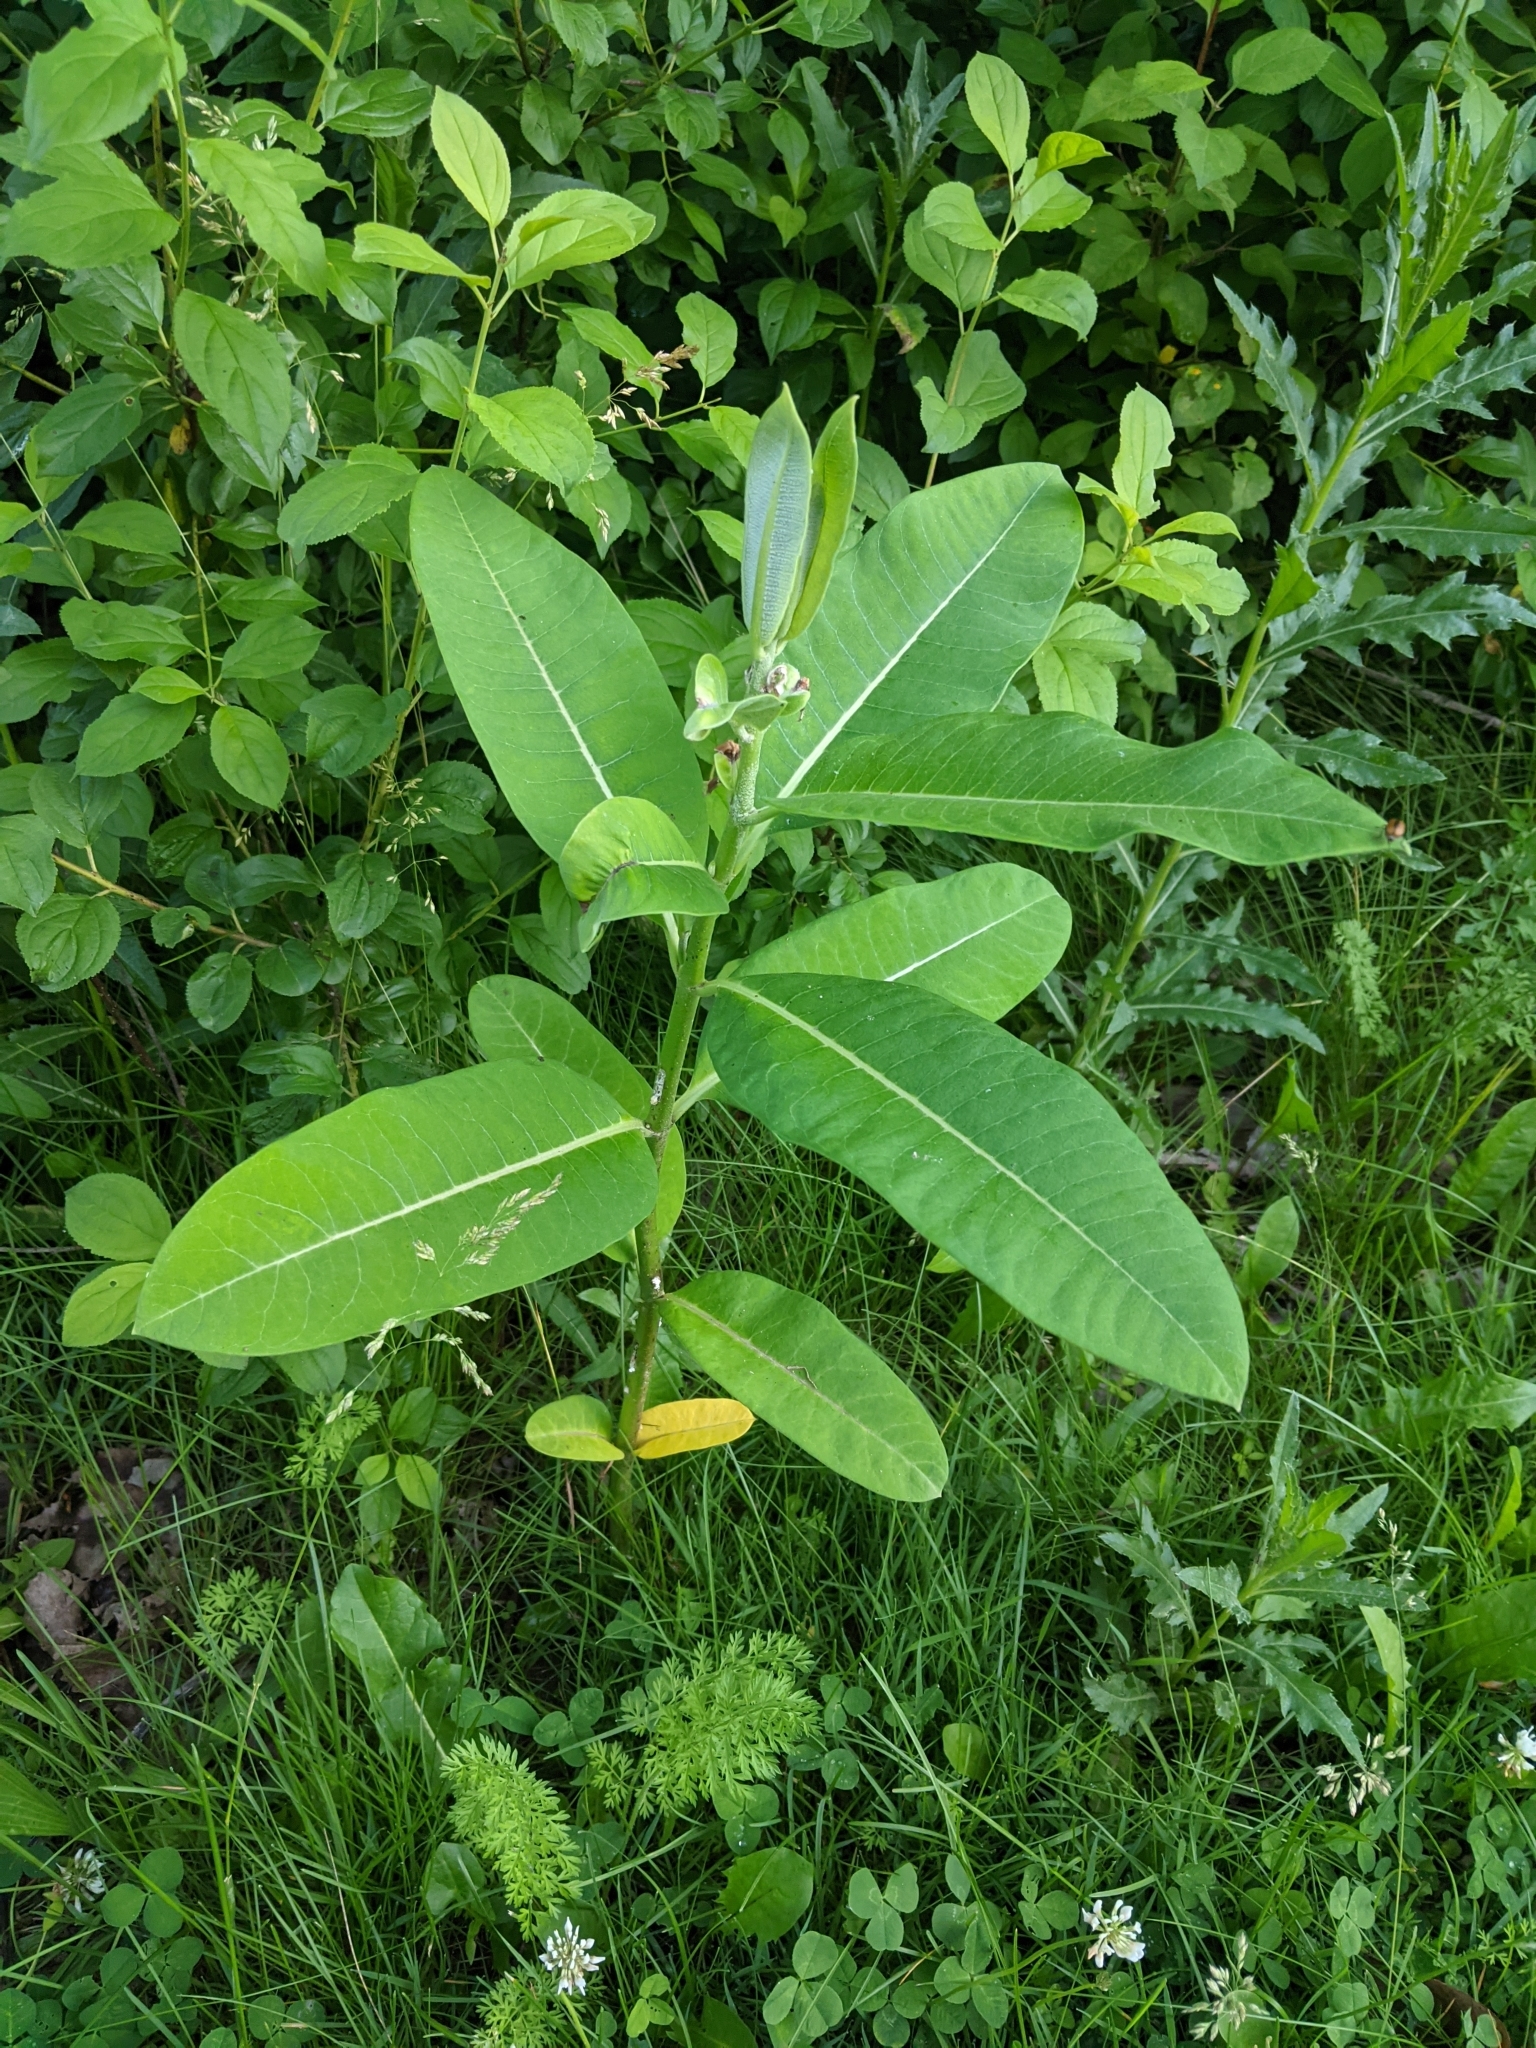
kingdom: Plantae
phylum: Tracheophyta
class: Magnoliopsida
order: Gentianales
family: Apocynaceae
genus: Asclepias
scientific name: Asclepias syriaca
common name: Common milkweed
